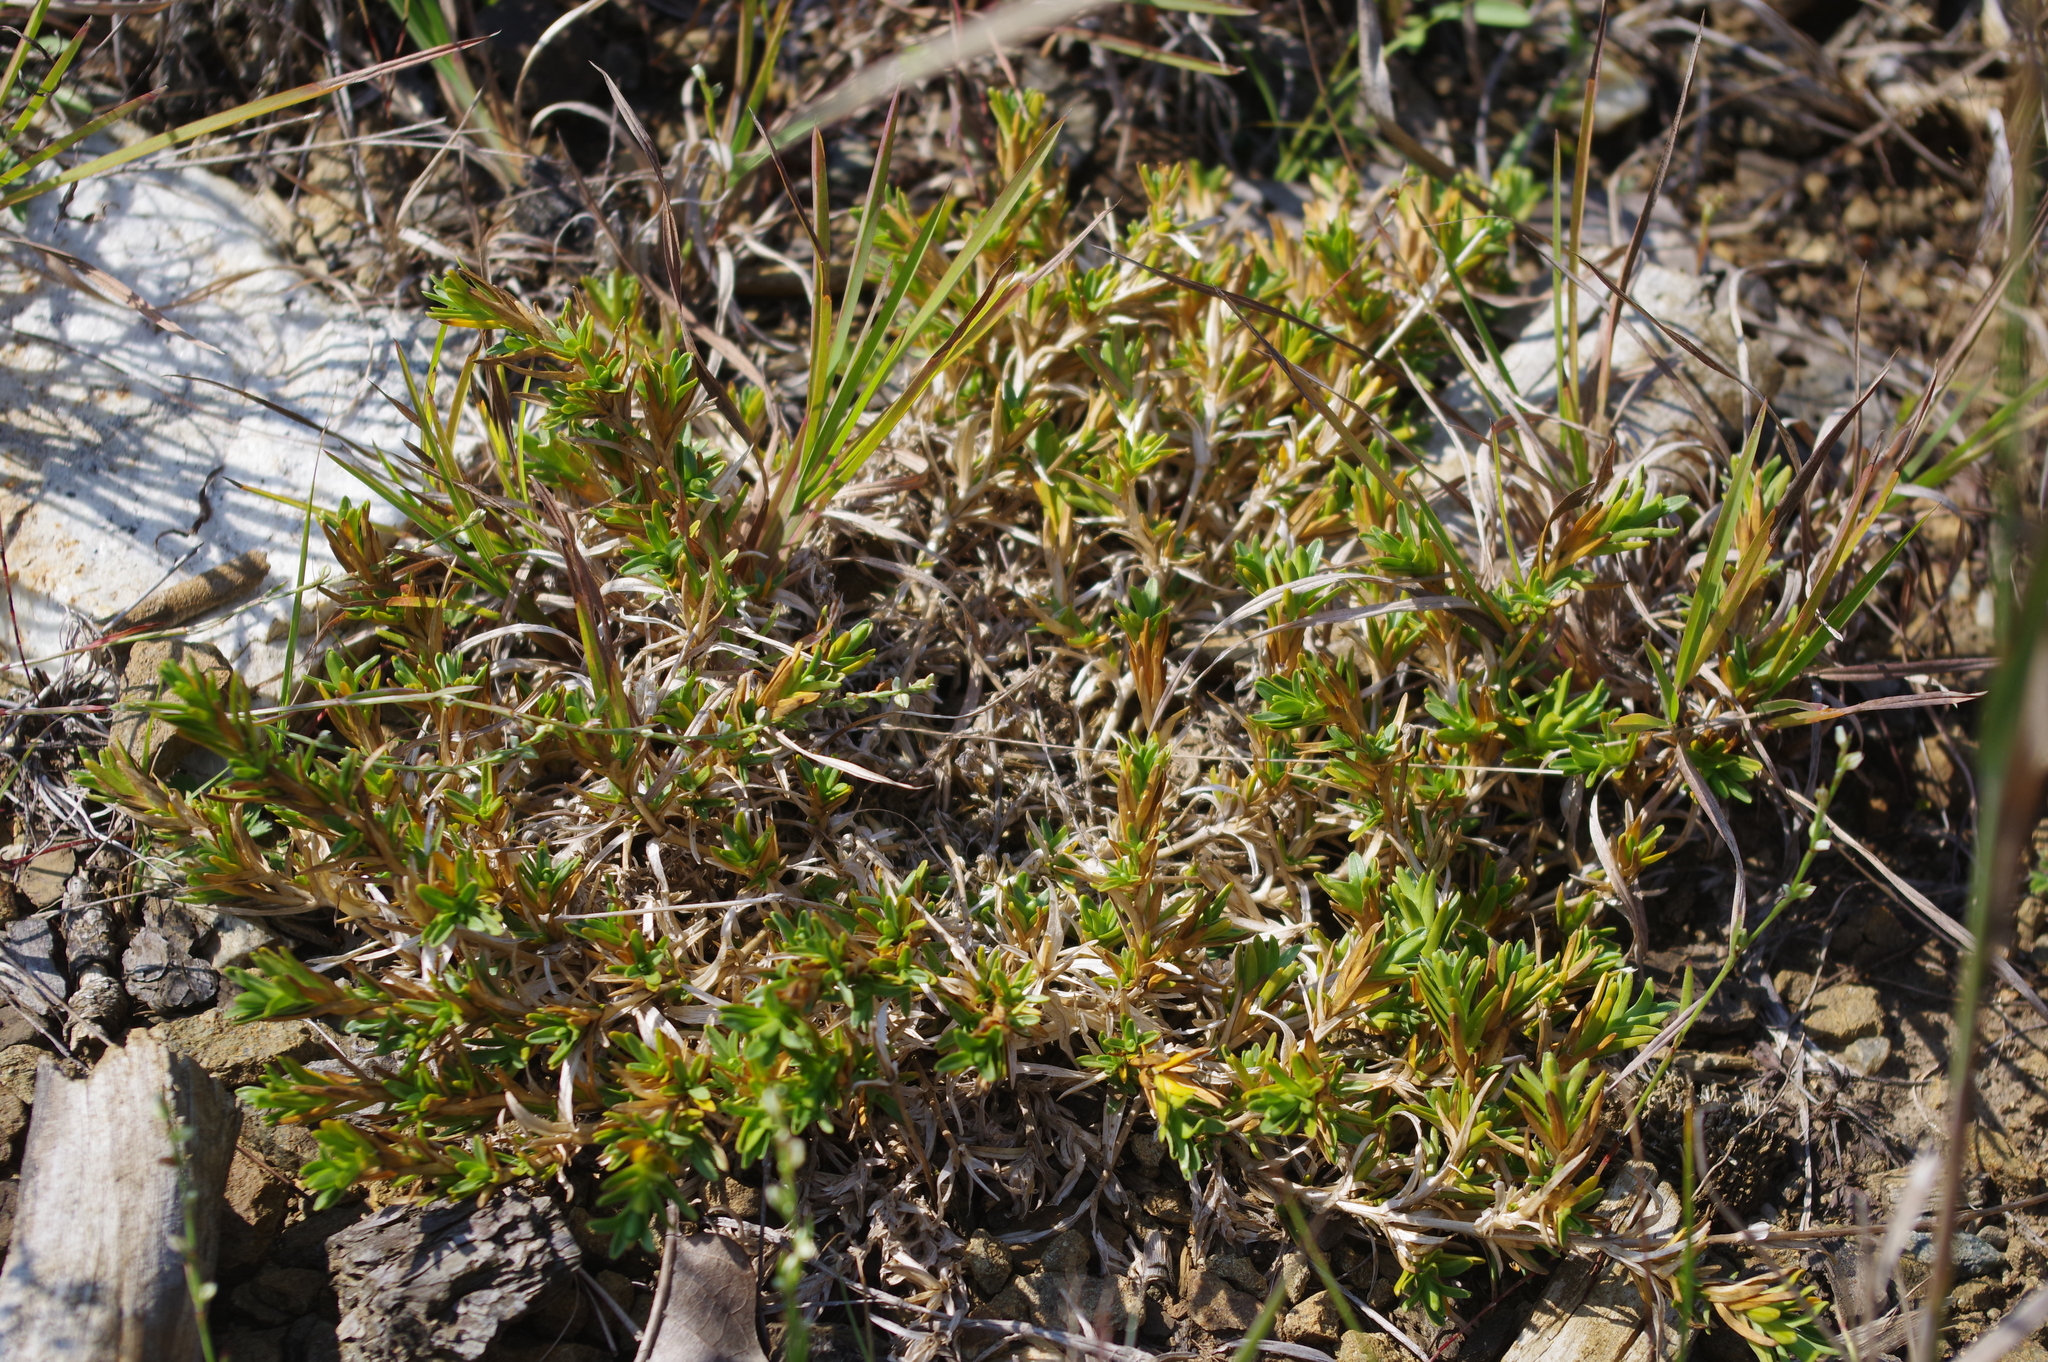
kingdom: Plantae
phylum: Tracheophyta
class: Magnoliopsida
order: Caryophyllales
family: Caryophyllaceae
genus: Cerastium
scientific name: Cerastium velutinum
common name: Barren chickweed
